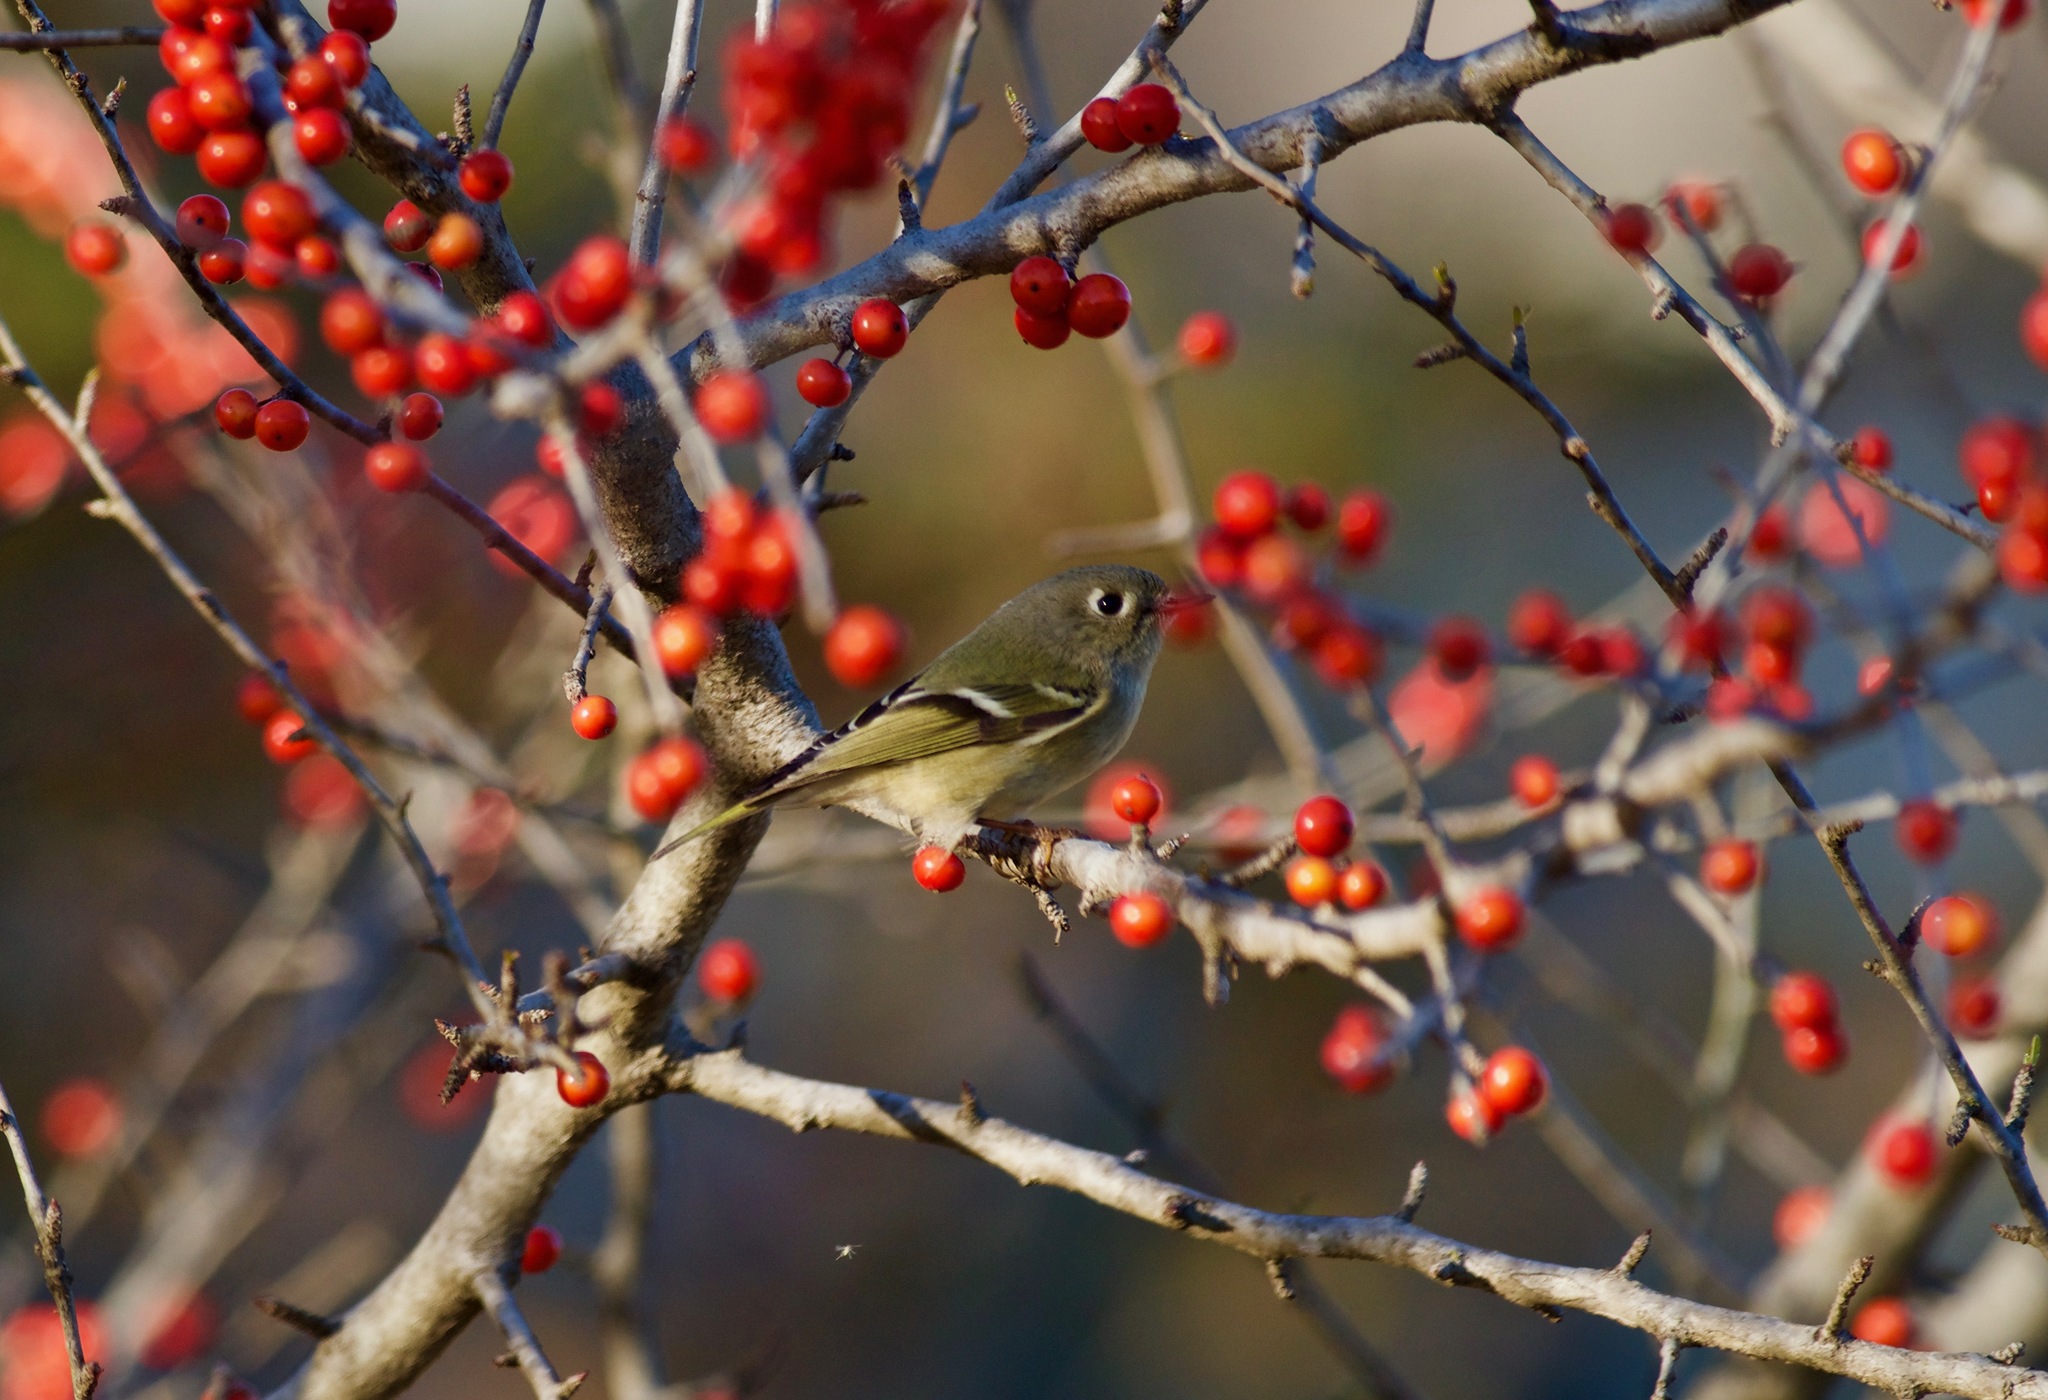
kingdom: Animalia
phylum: Chordata
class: Aves
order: Passeriformes
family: Regulidae
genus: Regulus
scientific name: Regulus calendula
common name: Ruby-crowned kinglet
